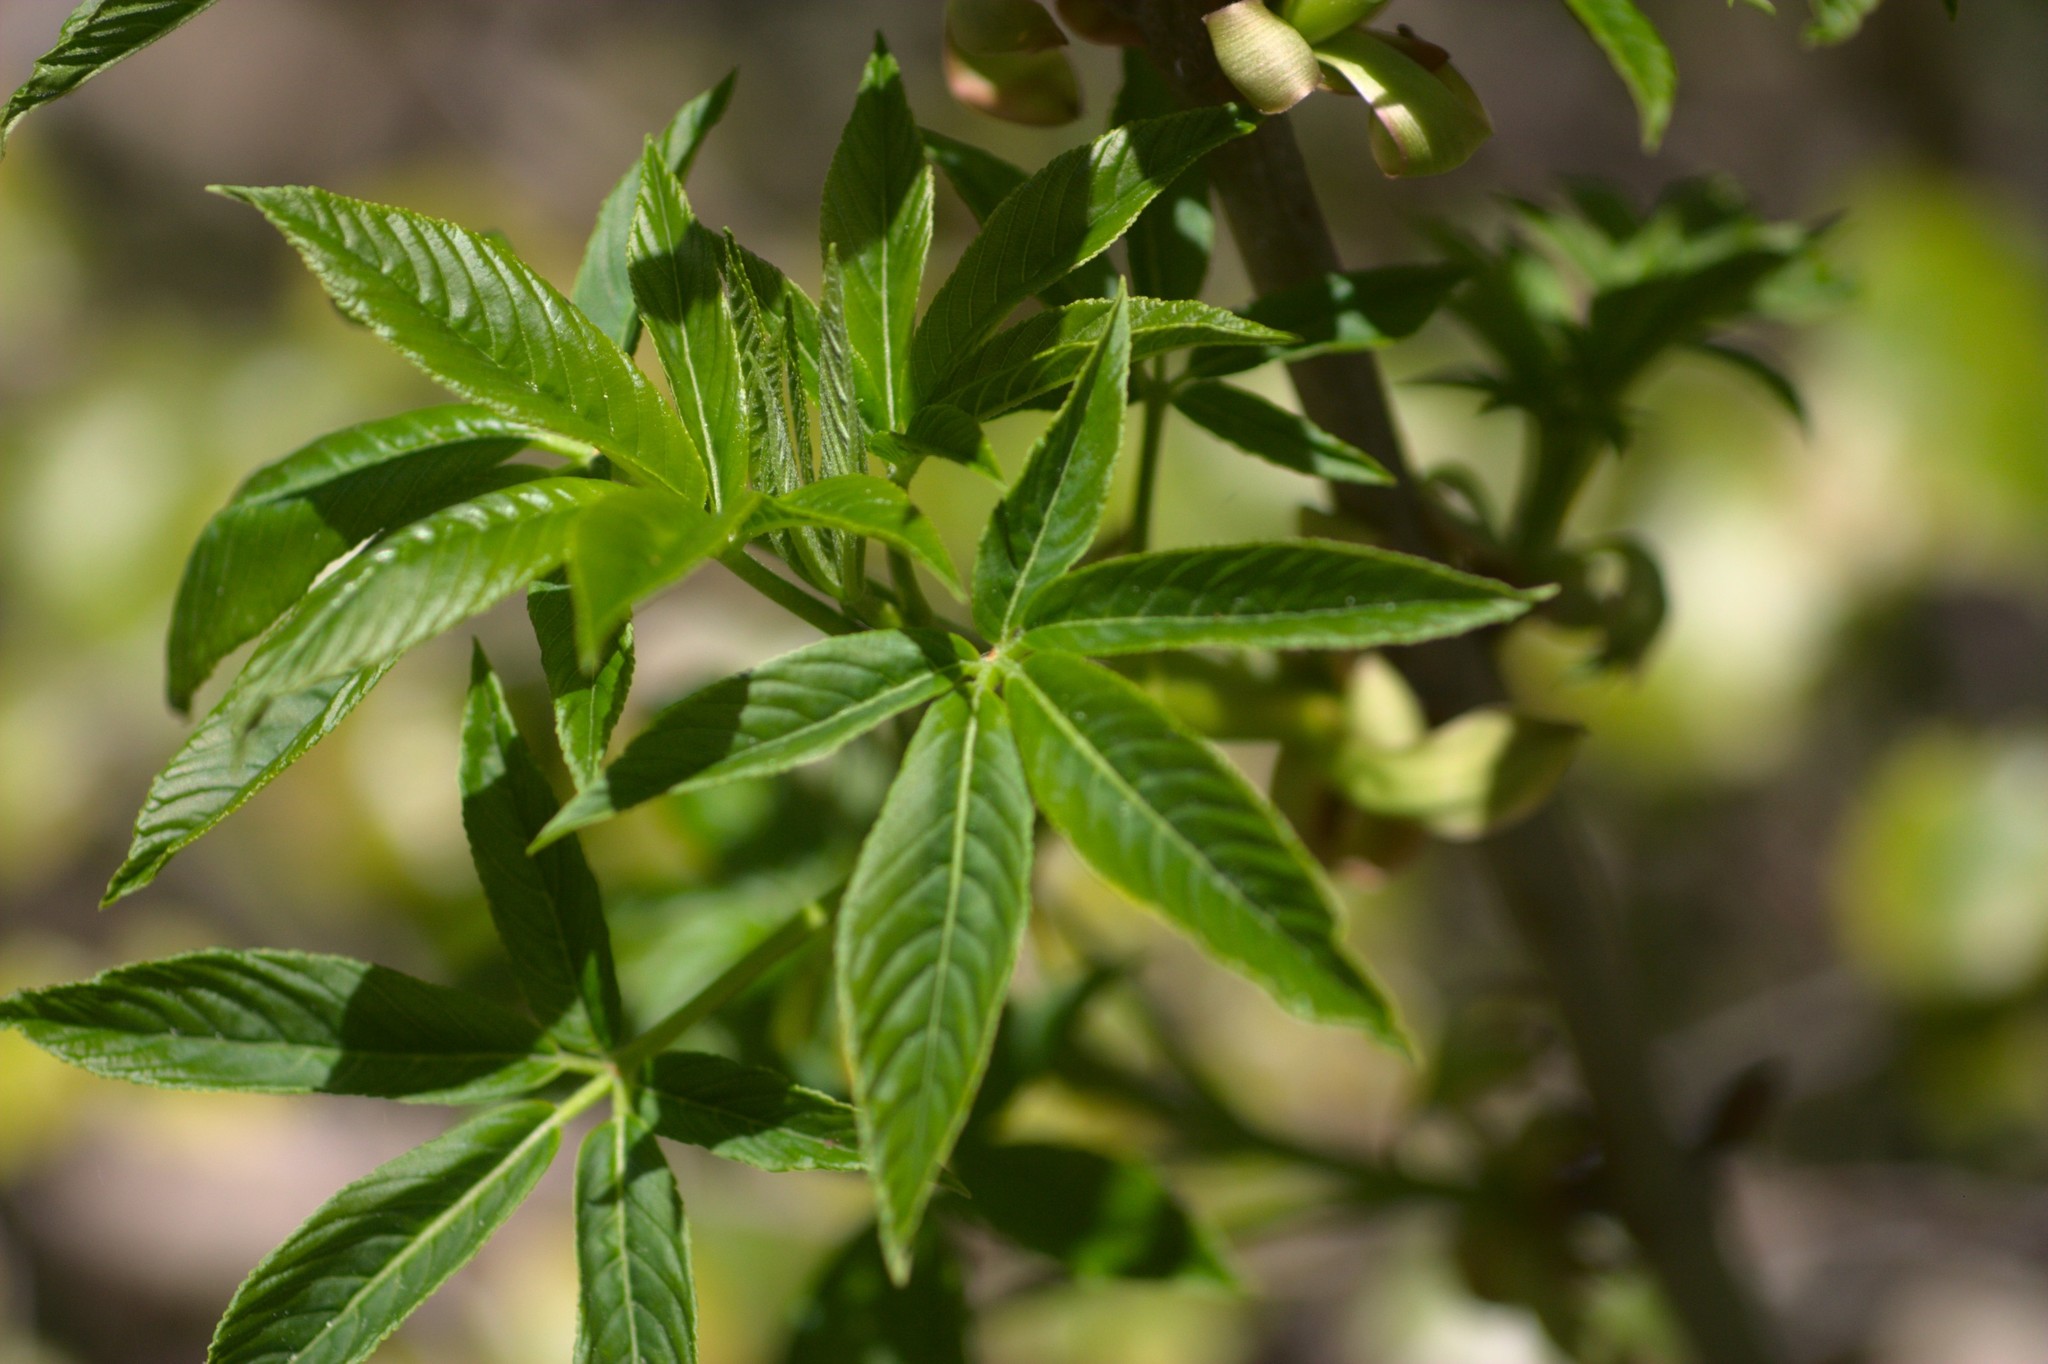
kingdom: Plantae
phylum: Tracheophyta
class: Magnoliopsida
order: Sapindales
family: Sapindaceae
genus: Aesculus
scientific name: Aesculus californica
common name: California buckeye
